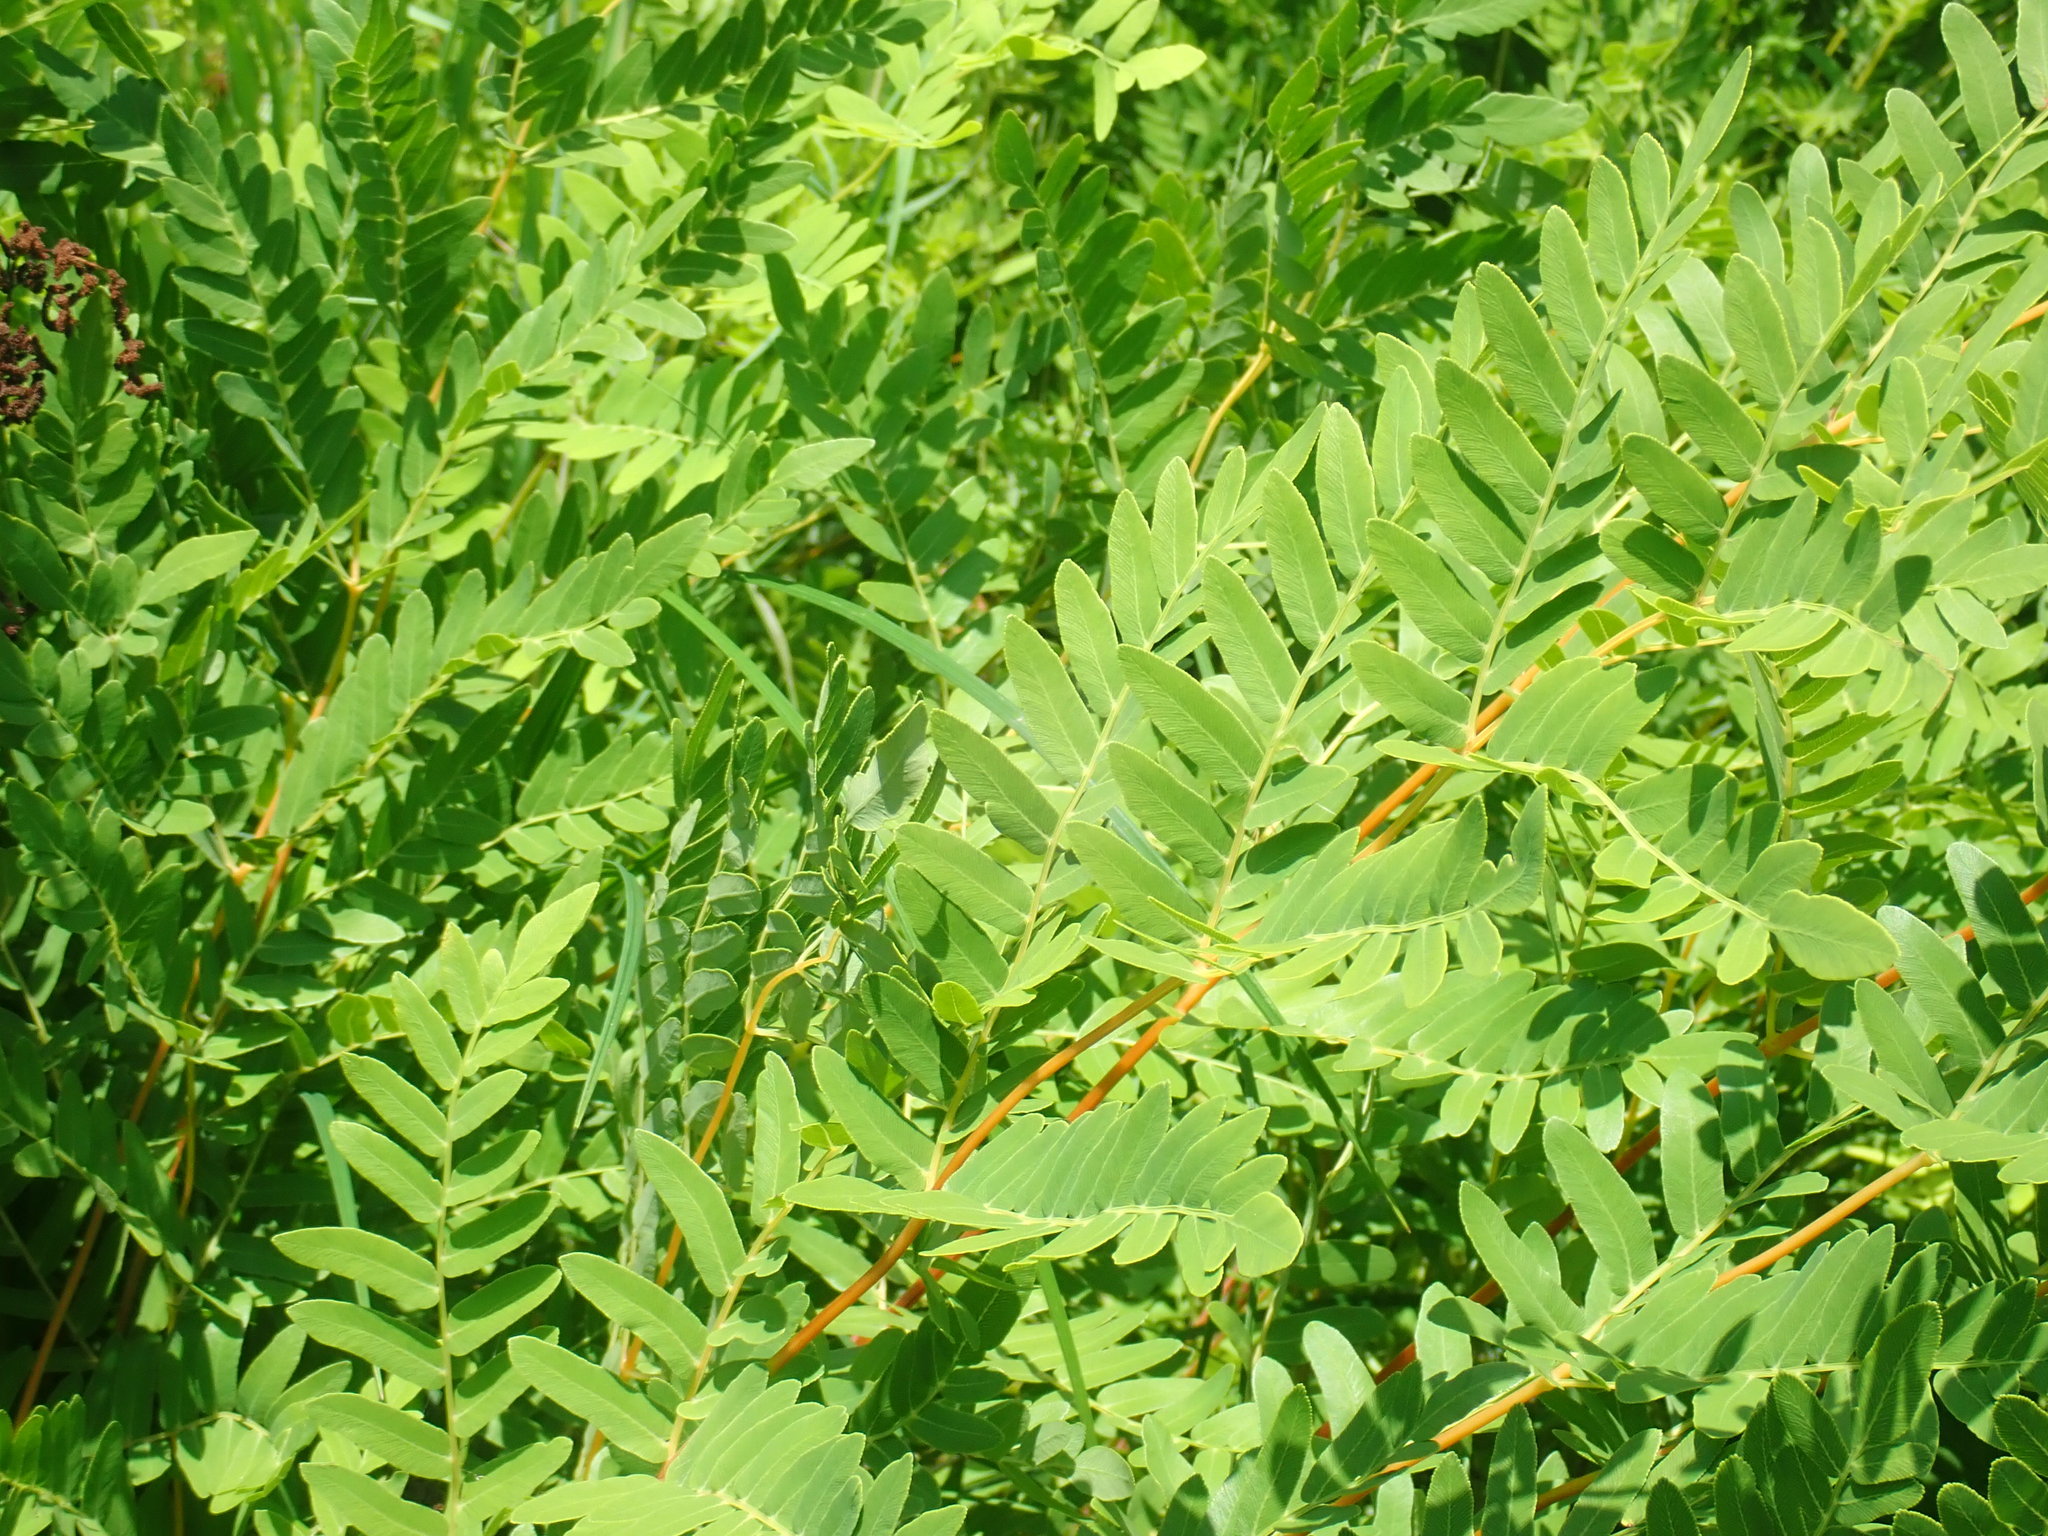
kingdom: Plantae
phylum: Tracheophyta
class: Polypodiopsida
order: Osmundales
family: Osmundaceae
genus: Osmunda
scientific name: Osmunda spectabilis
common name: American royal fern
